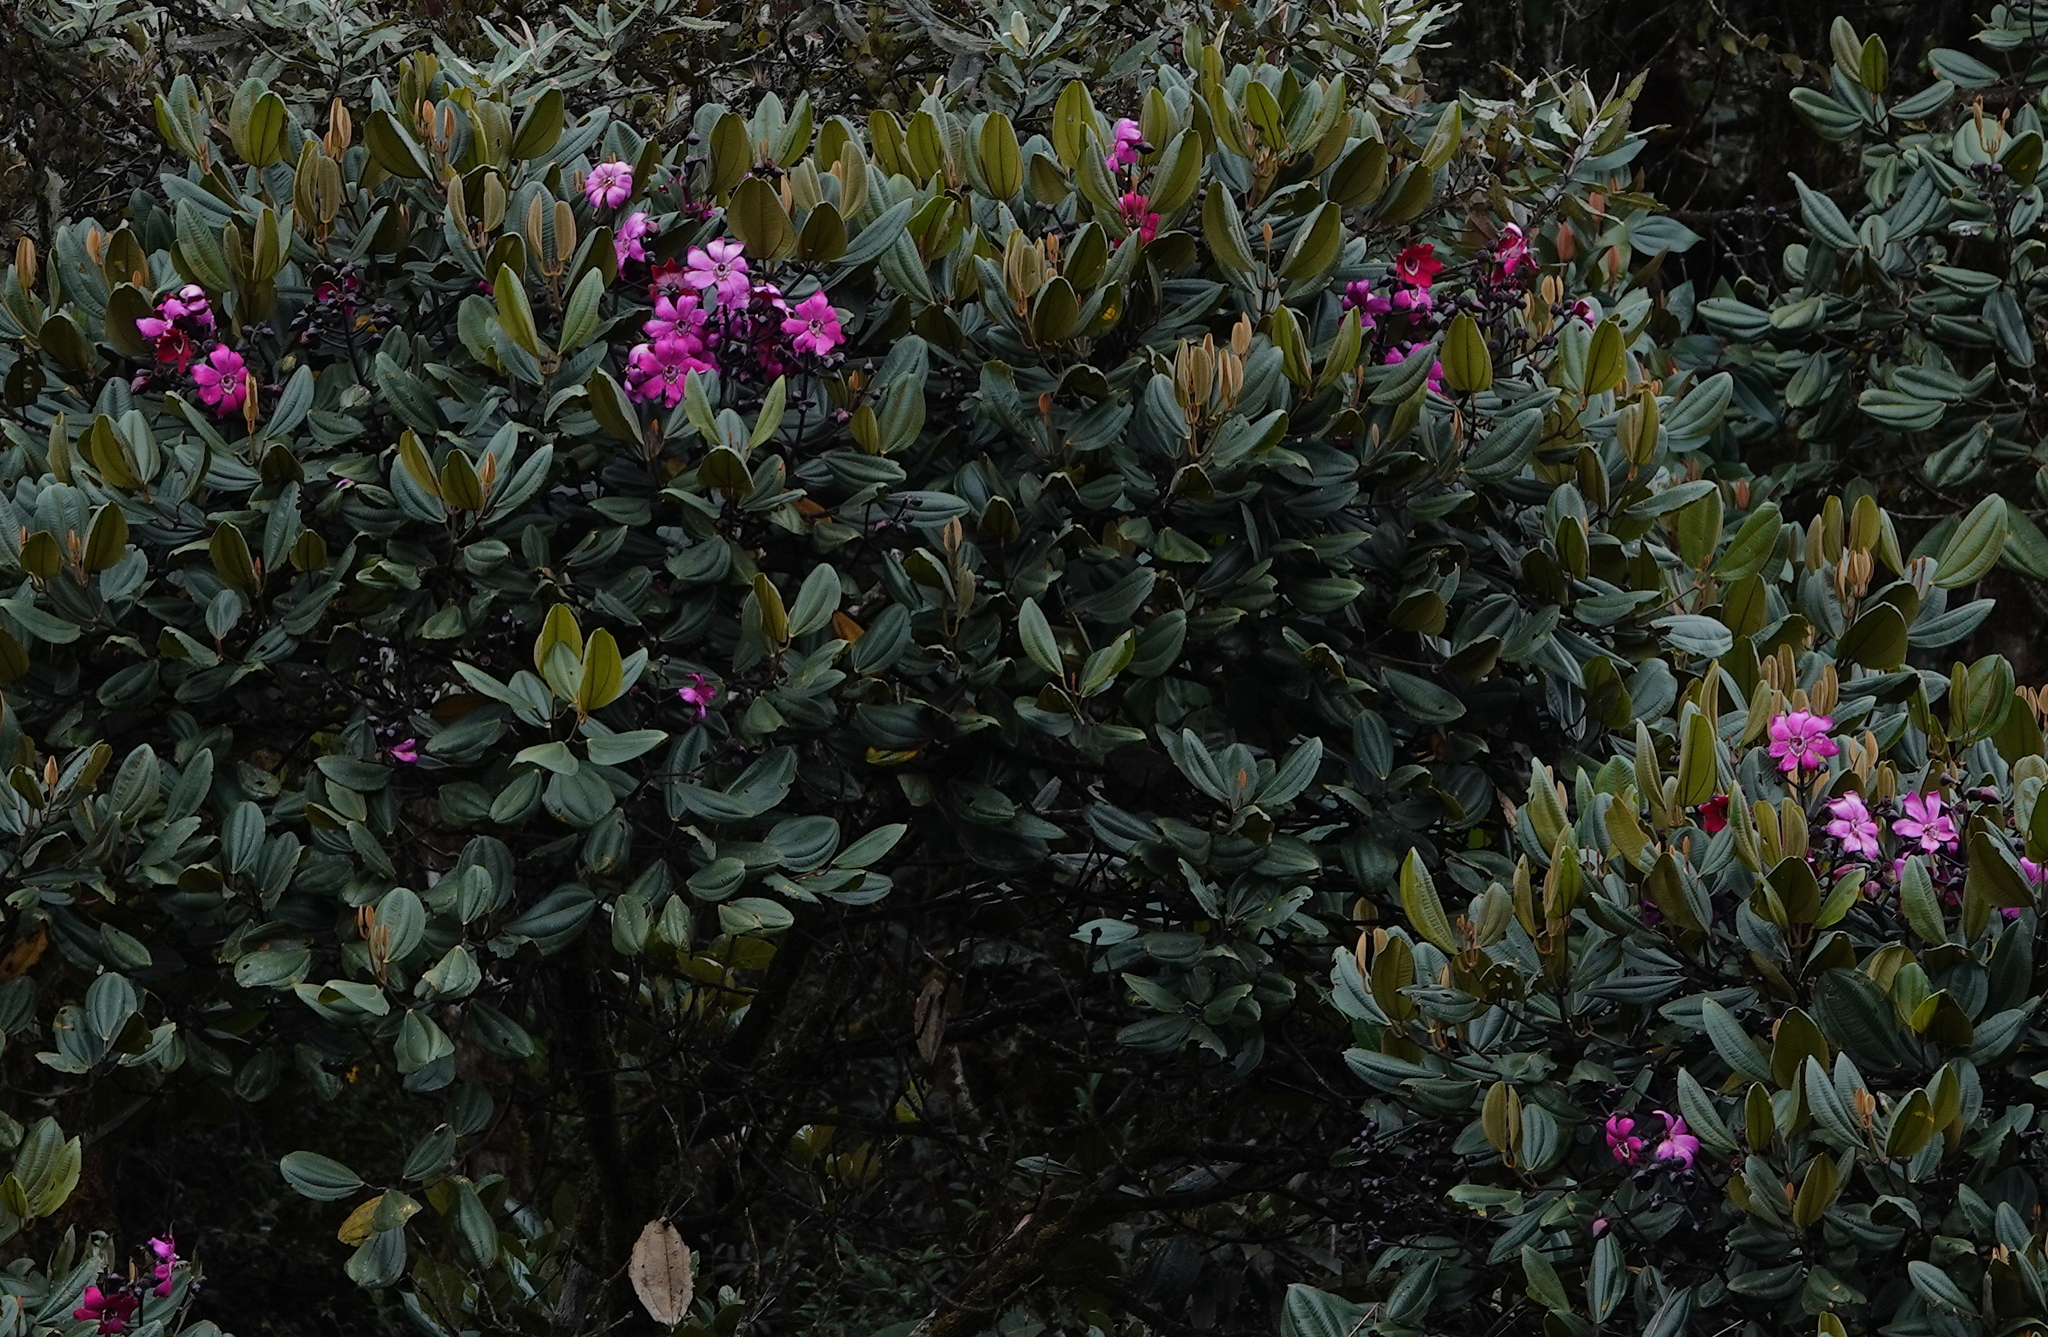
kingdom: Plantae
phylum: Tracheophyta
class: Magnoliopsida
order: Myrtales
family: Melastomataceae
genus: Meriania
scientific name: Meriania heptamera
